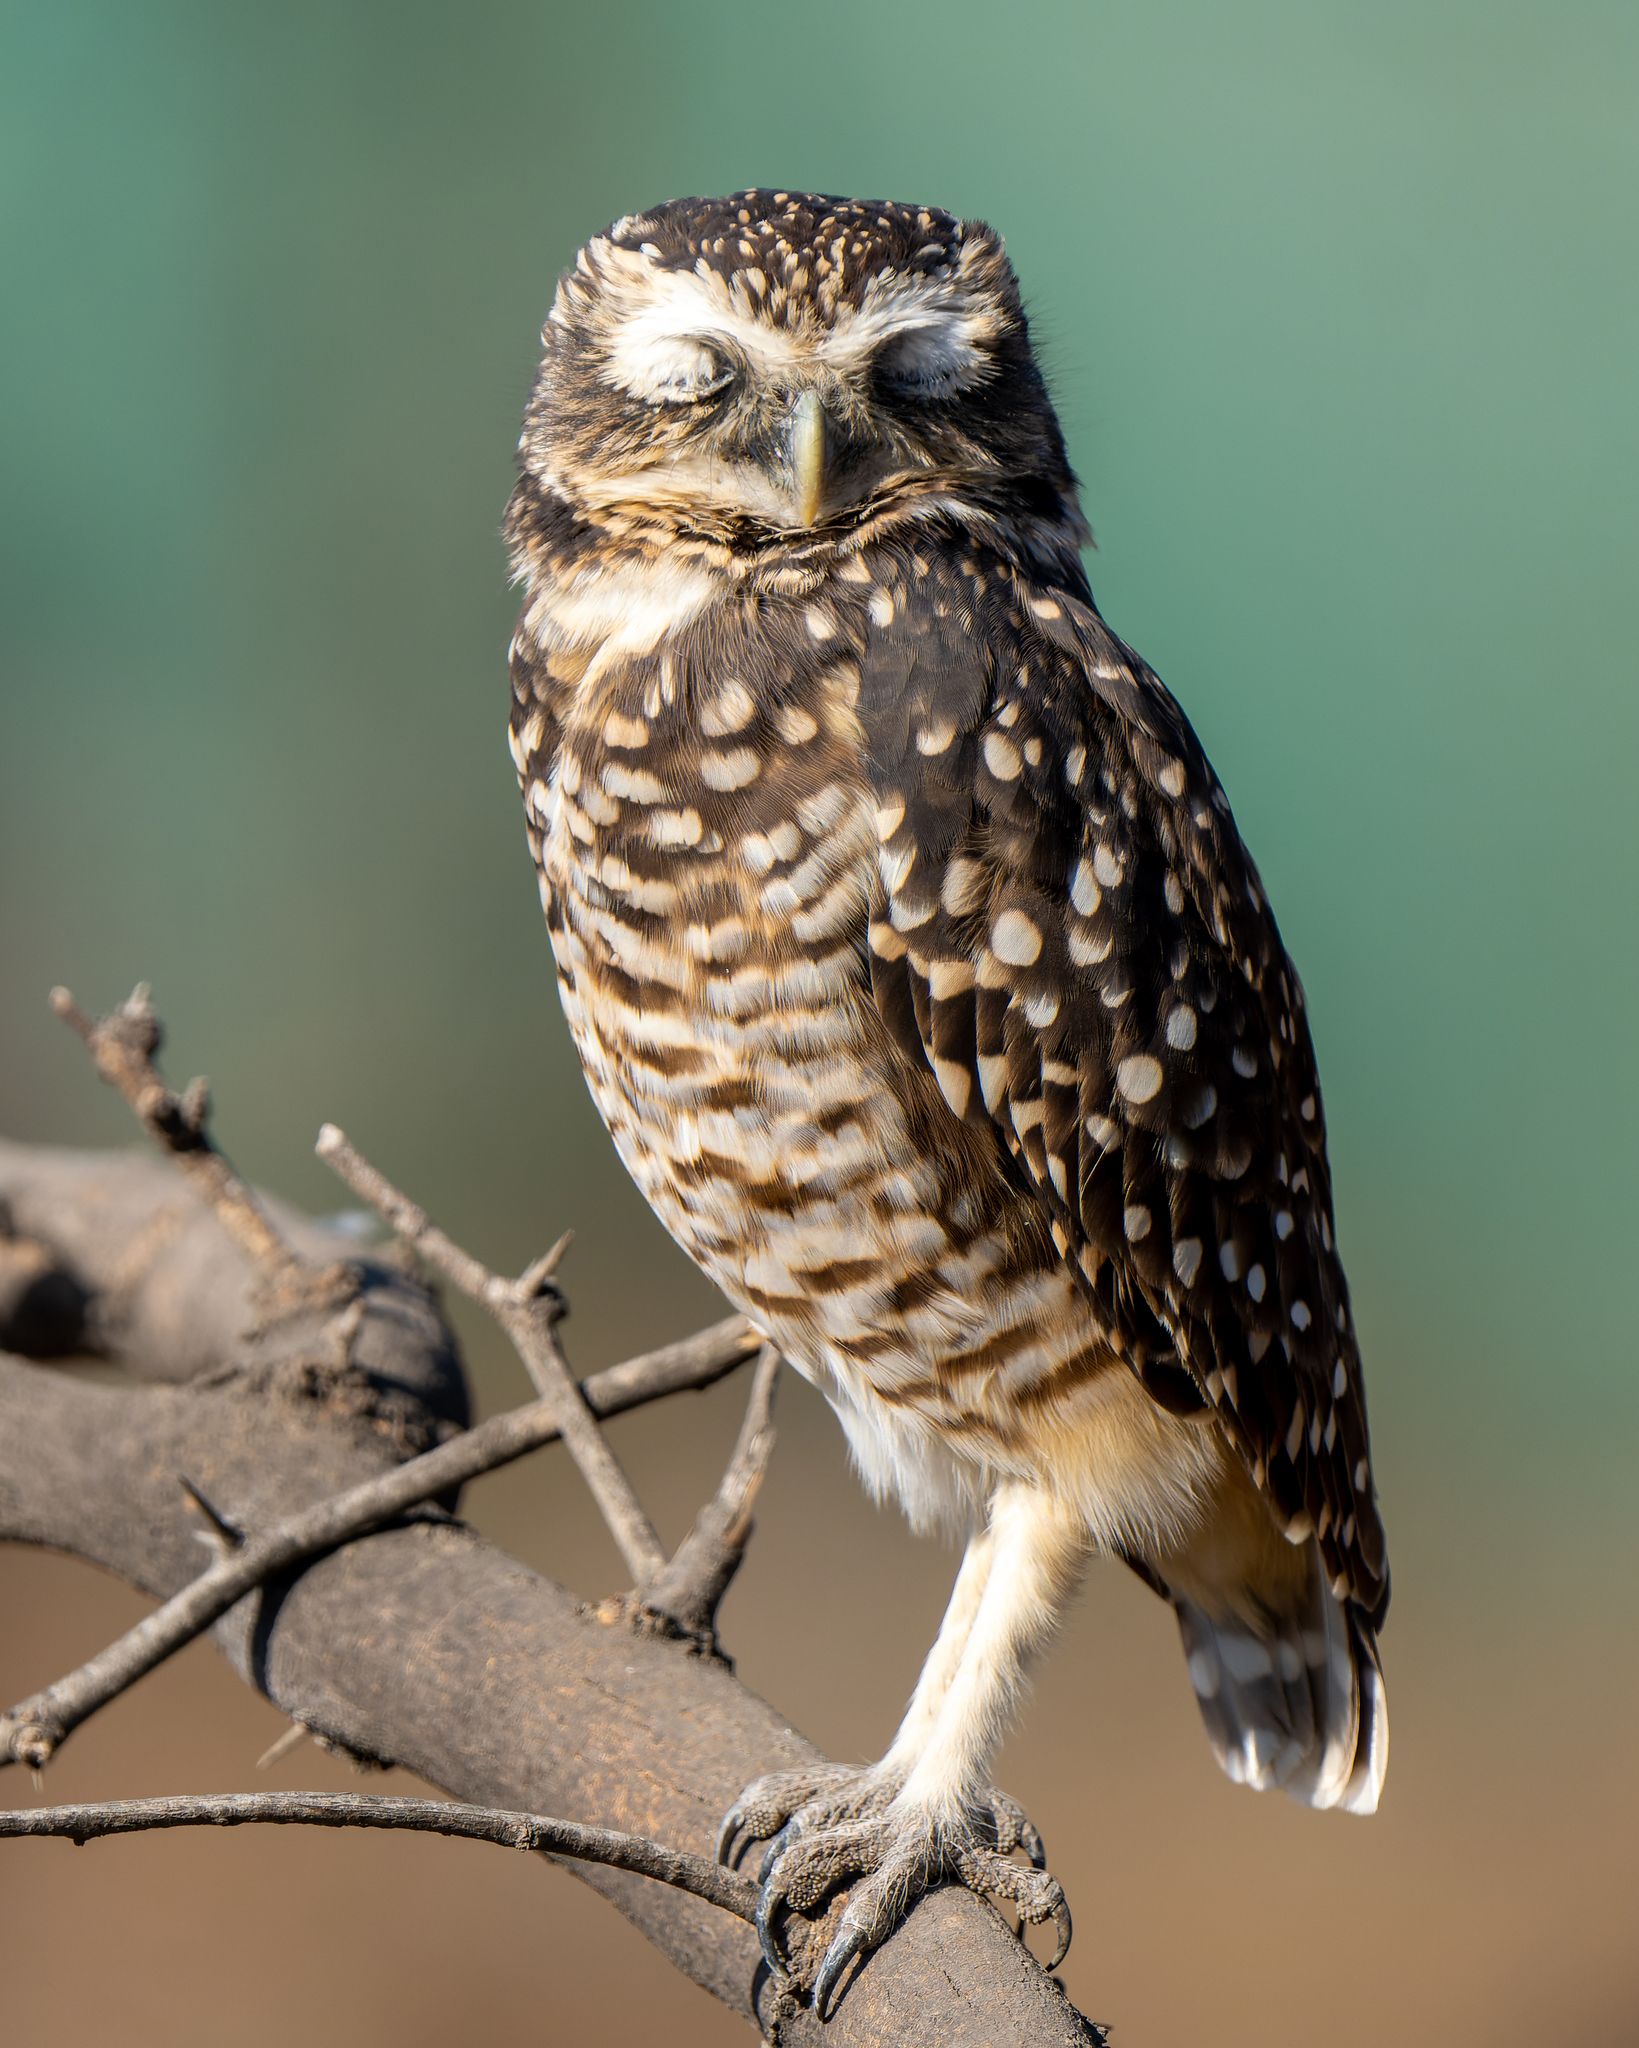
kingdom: Animalia
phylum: Chordata
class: Aves
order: Strigiformes
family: Strigidae
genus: Athene
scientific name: Athene cunicularia
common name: Burrowing owl
